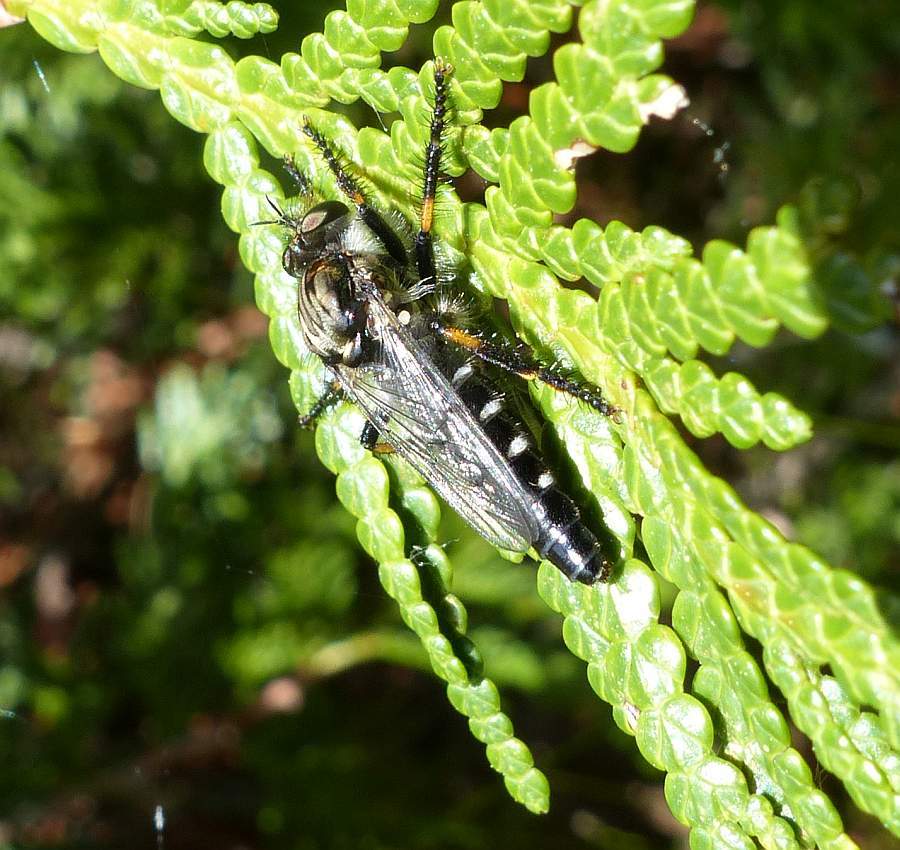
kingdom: Animalia
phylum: Arthropoda
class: Insecta
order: Diptera
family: Asilidae
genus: Cyrtopogon
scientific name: Cyrtopogon falto
